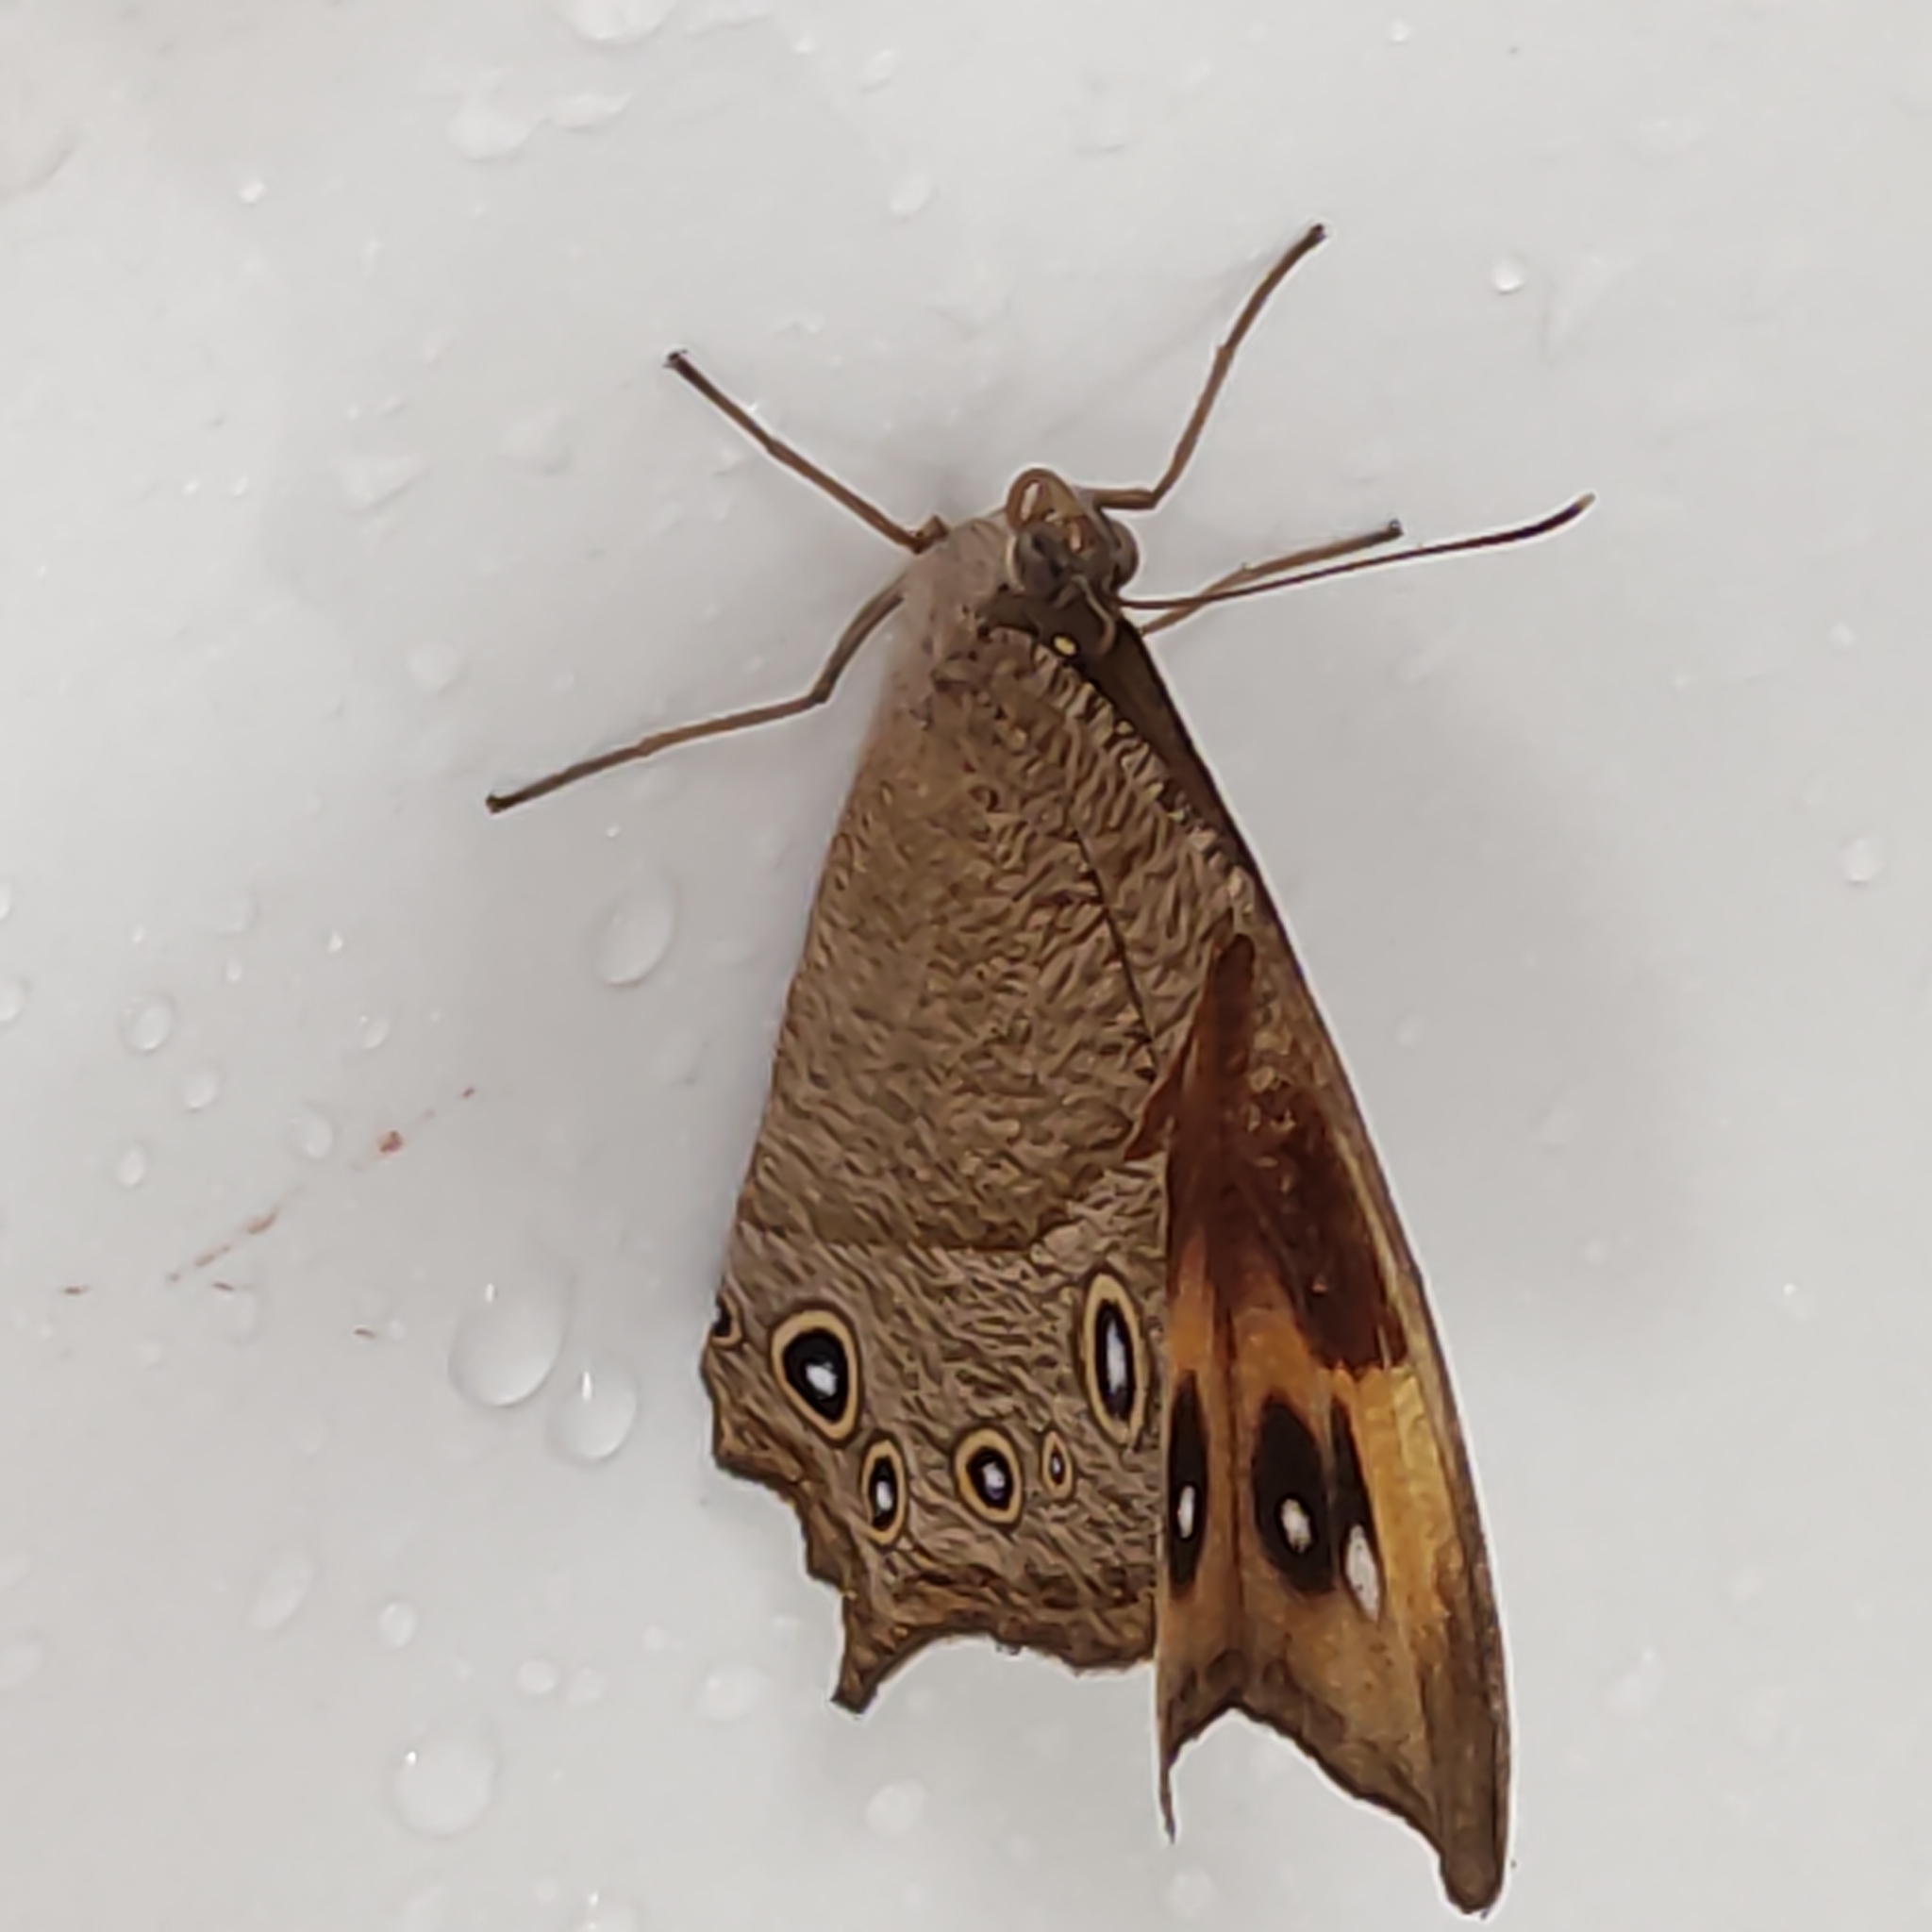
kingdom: Animalia
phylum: Arthropoda
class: Insecta
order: Lepidoptera
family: Nymphalidae
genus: Melanitis
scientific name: Melanitis leda
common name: Twilight brown
